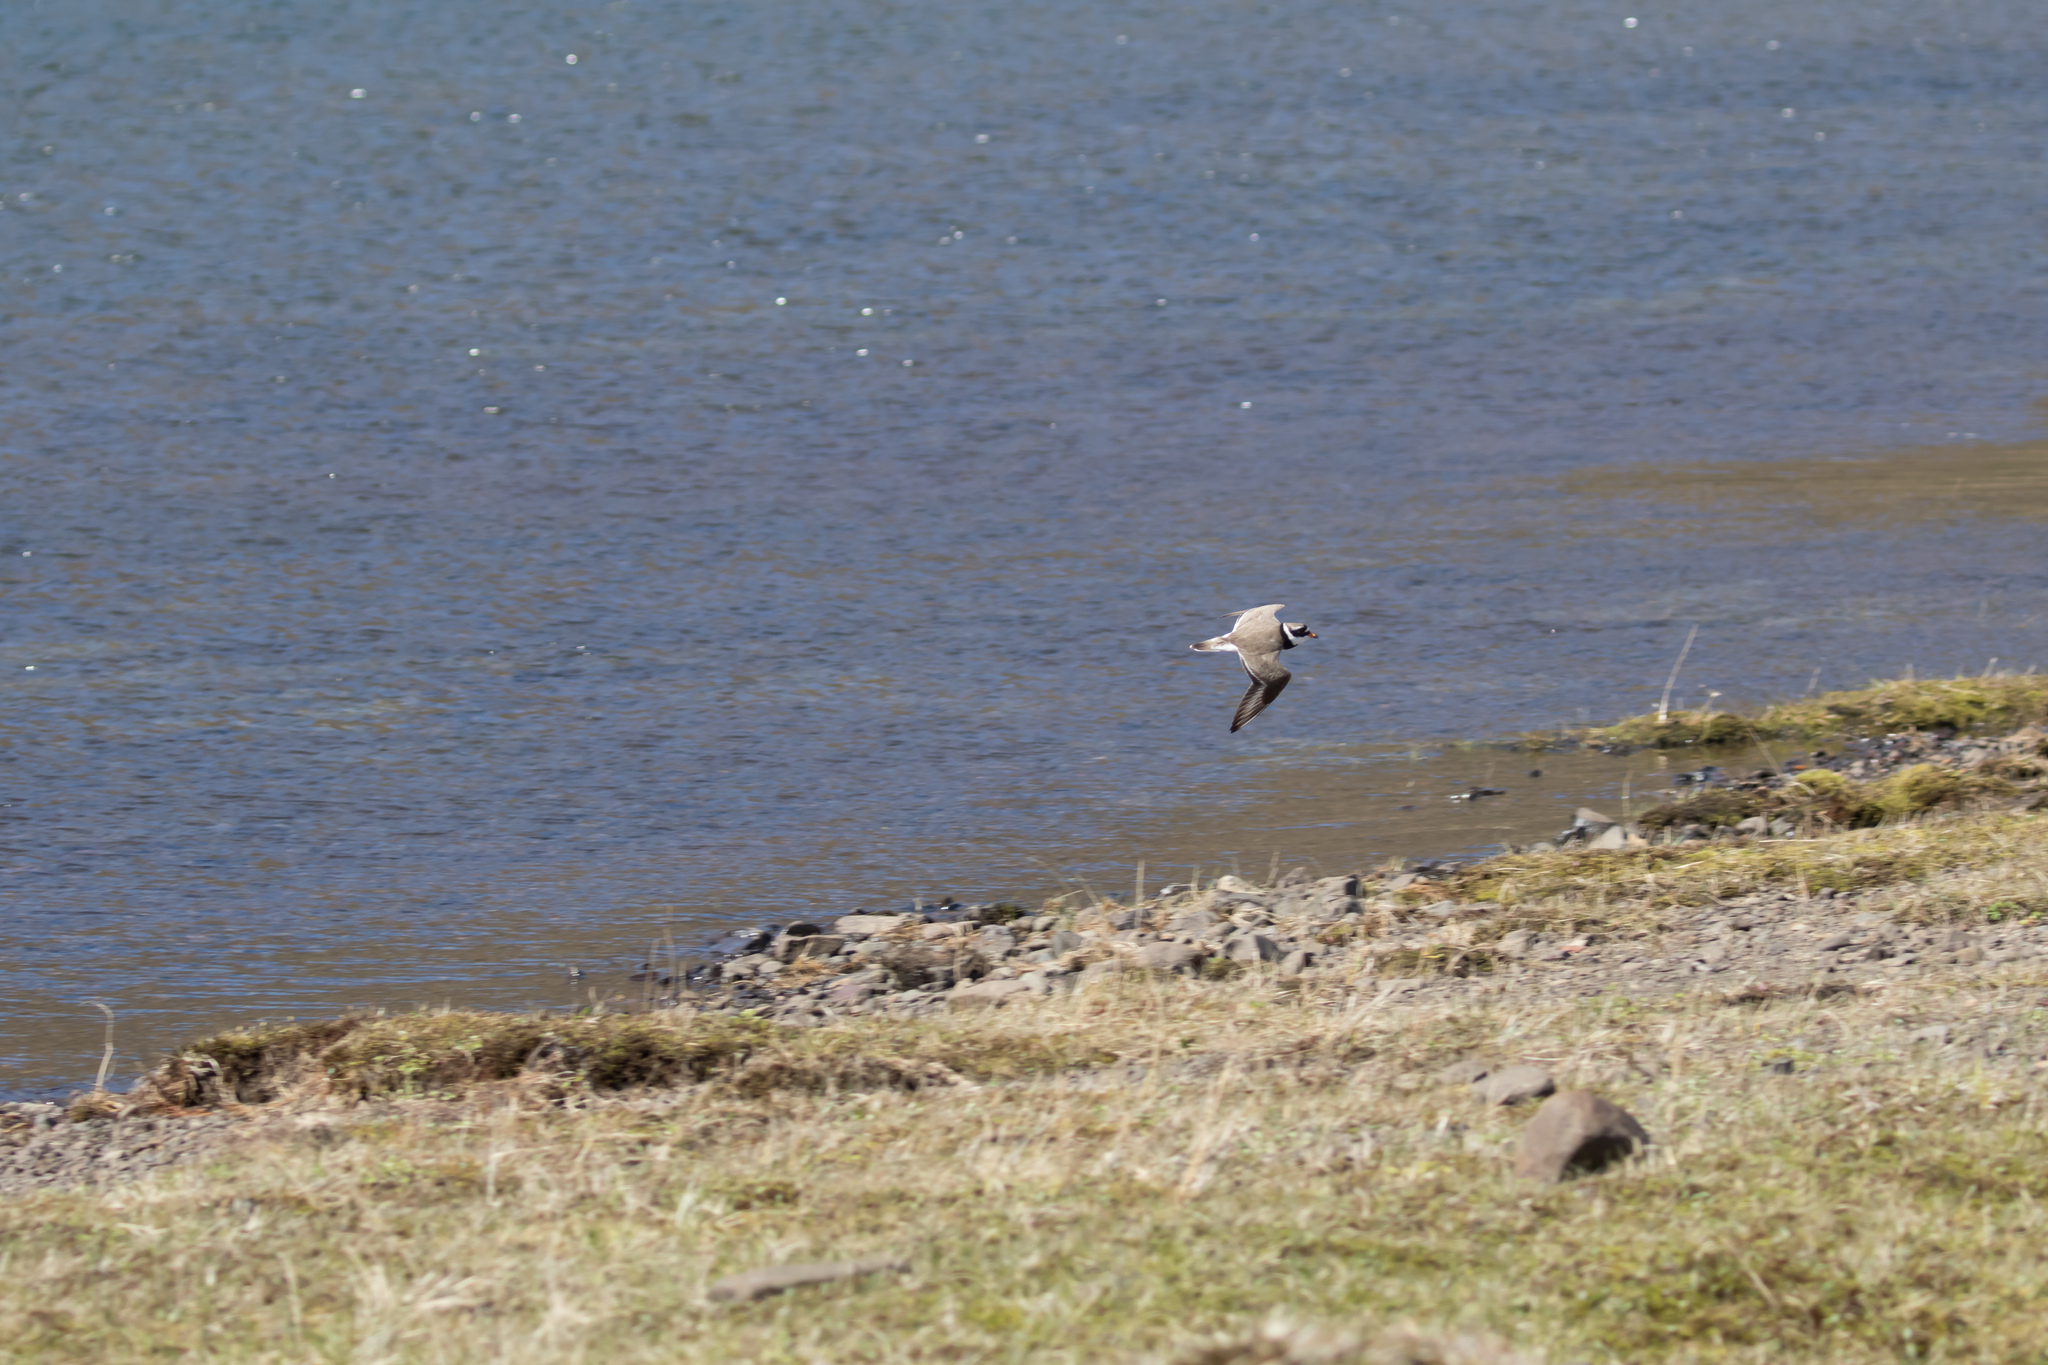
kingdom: Animalia
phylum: Chordata
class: Aves
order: Charadriiformes
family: Charadriidae
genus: Charadrius
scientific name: Charadrius hiaticula
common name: Common ringed plover
